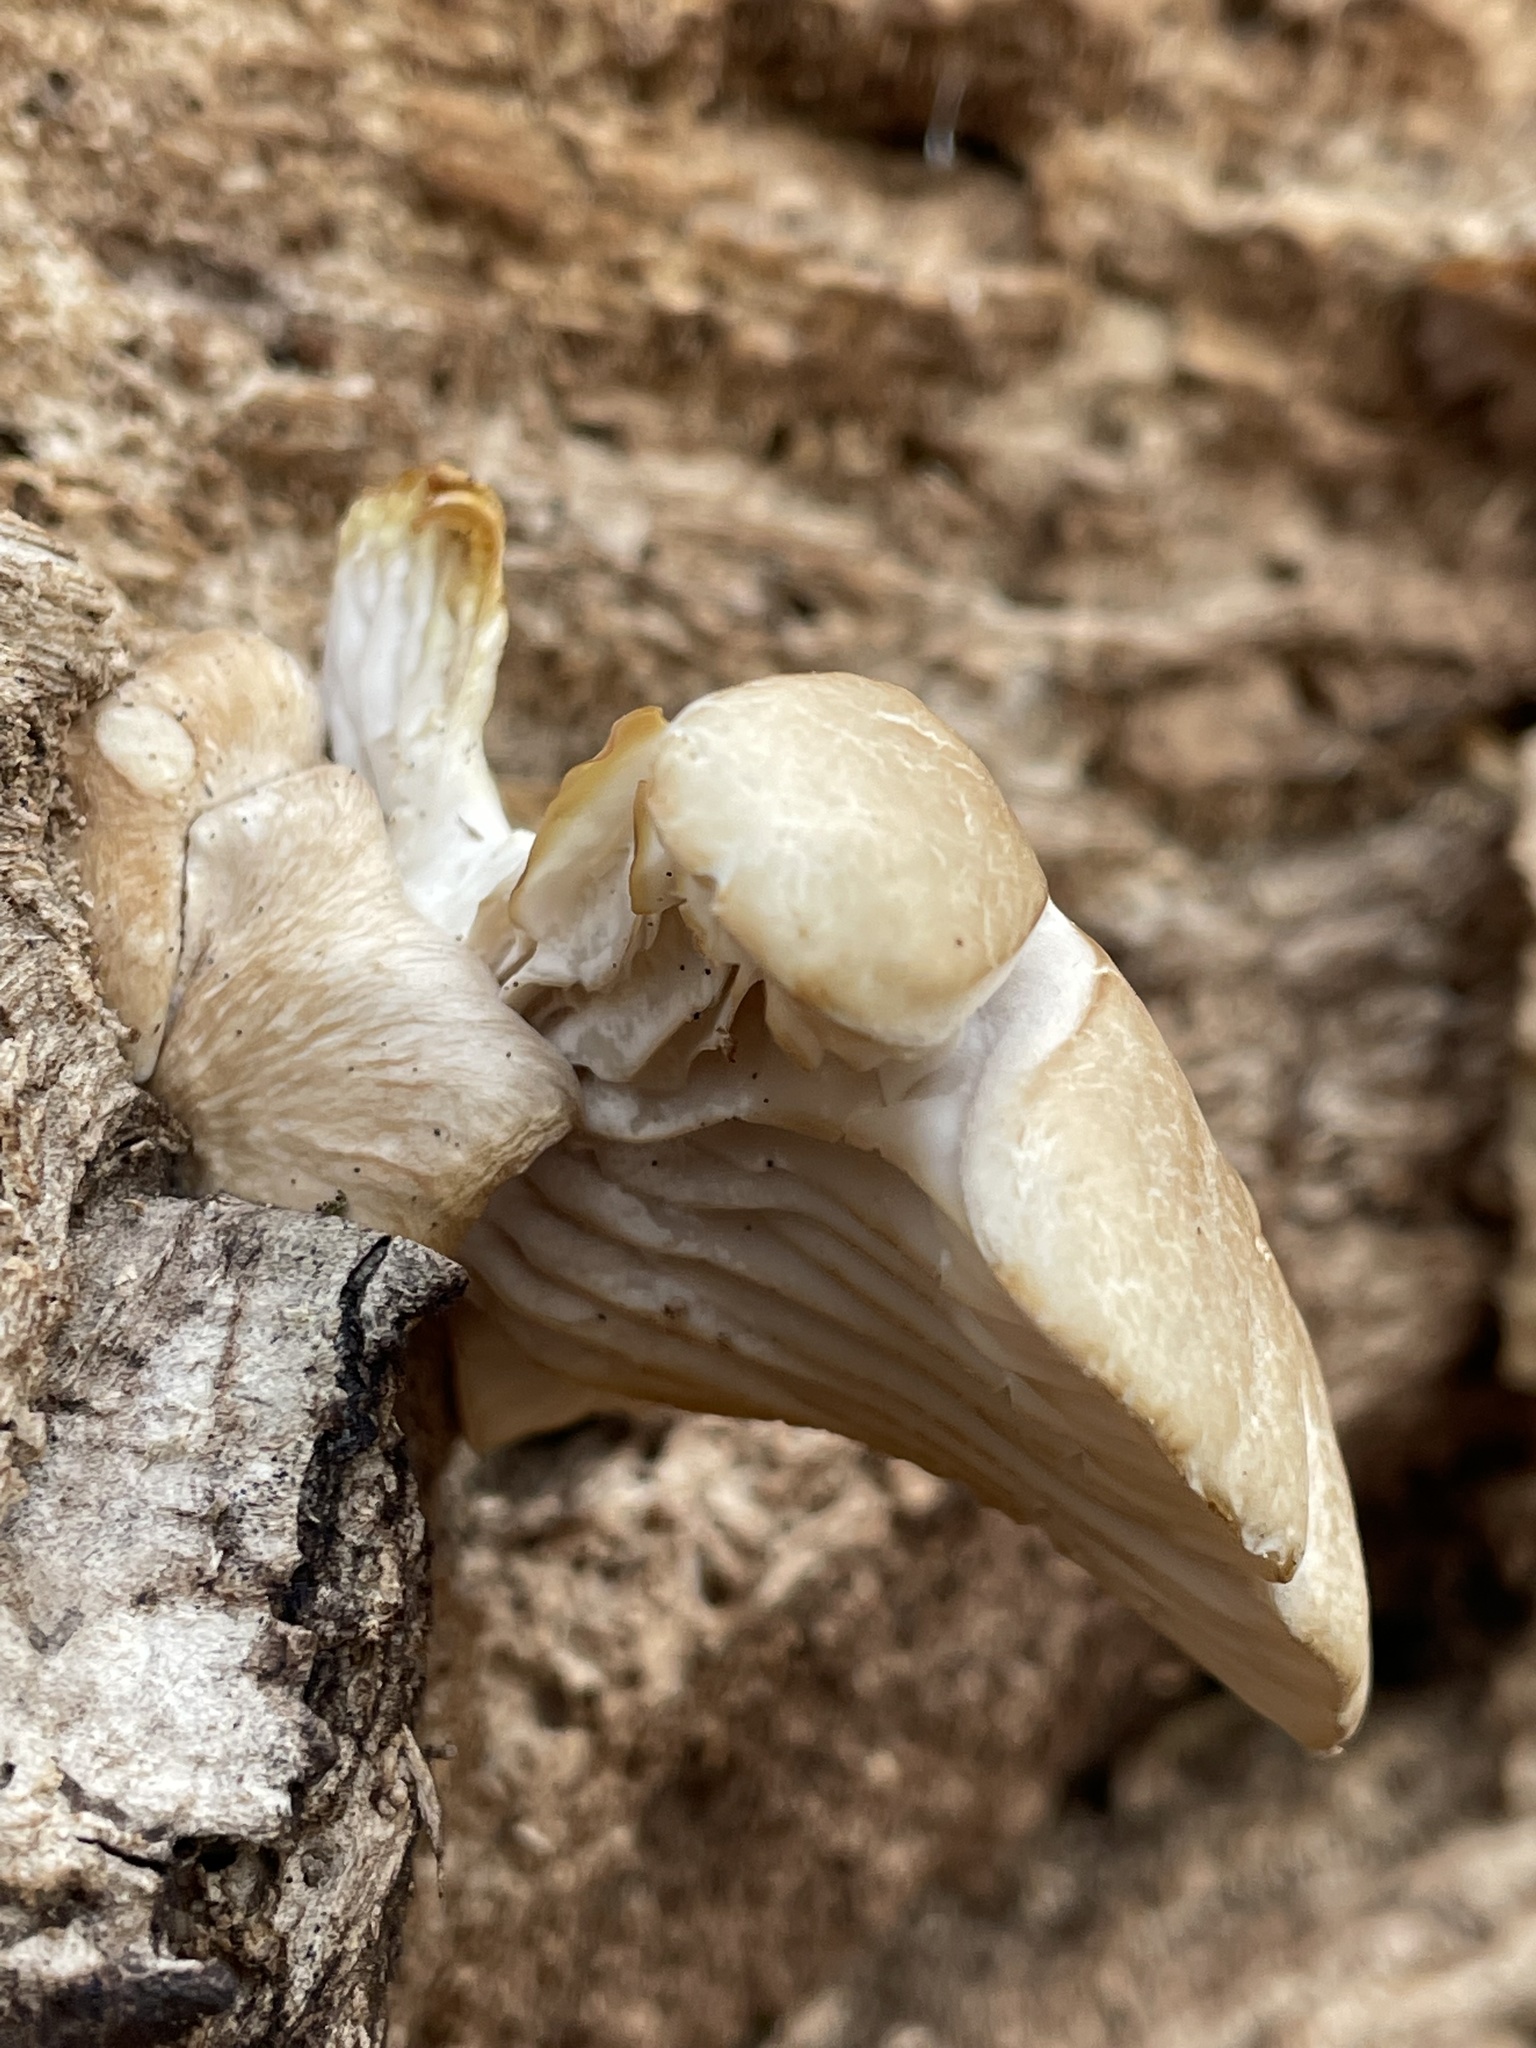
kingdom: Fungi
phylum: Basidiomycota
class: Agaricomycetes
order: Agaricales
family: Pleurotaceae
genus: Pleurotus
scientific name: Pleurotus ostreatus
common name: Oyster mushroom
